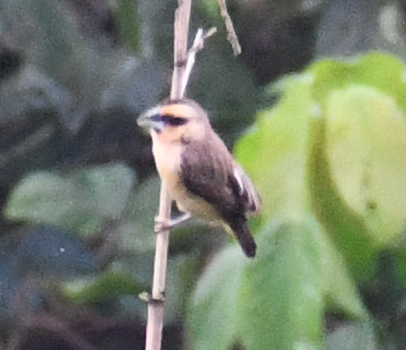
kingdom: Animalia
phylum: Chordata
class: Aves
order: Passeriformes
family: Ploceidae
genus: Ploceus
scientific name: Ploceus superciliosus
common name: Compact weaver
